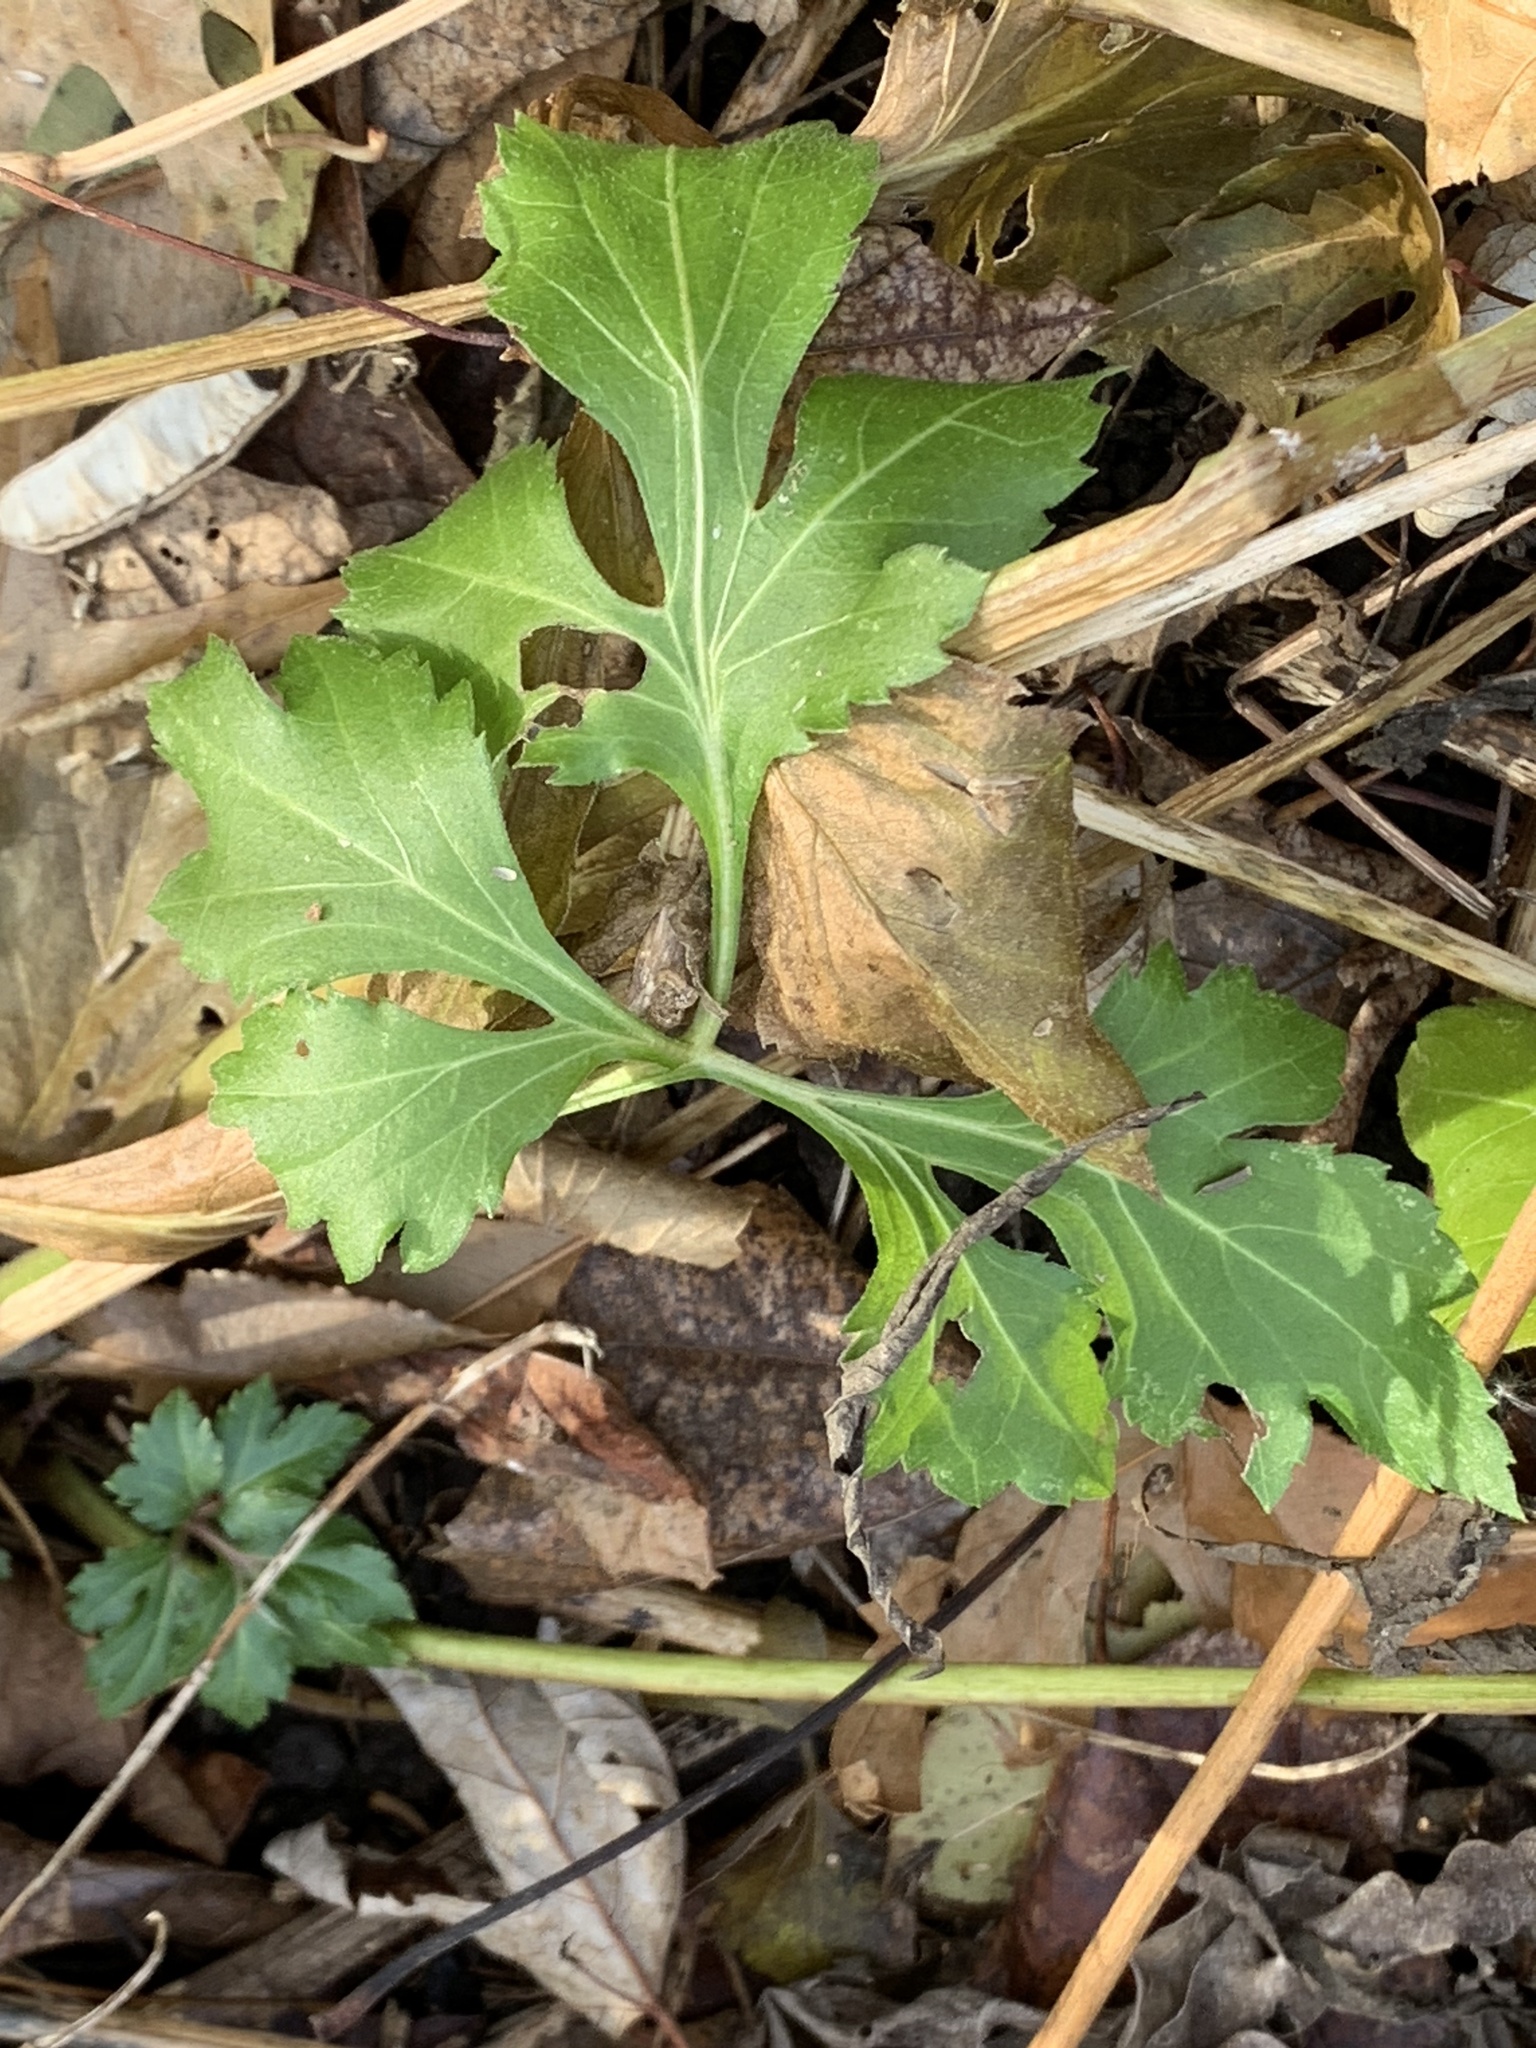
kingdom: Plantae
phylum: Tracheophyta
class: Magnoliopsida
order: Asterales
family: Asteraceae
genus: Rudbeckia
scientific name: Rudbeckia laciniata
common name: Coneflower
